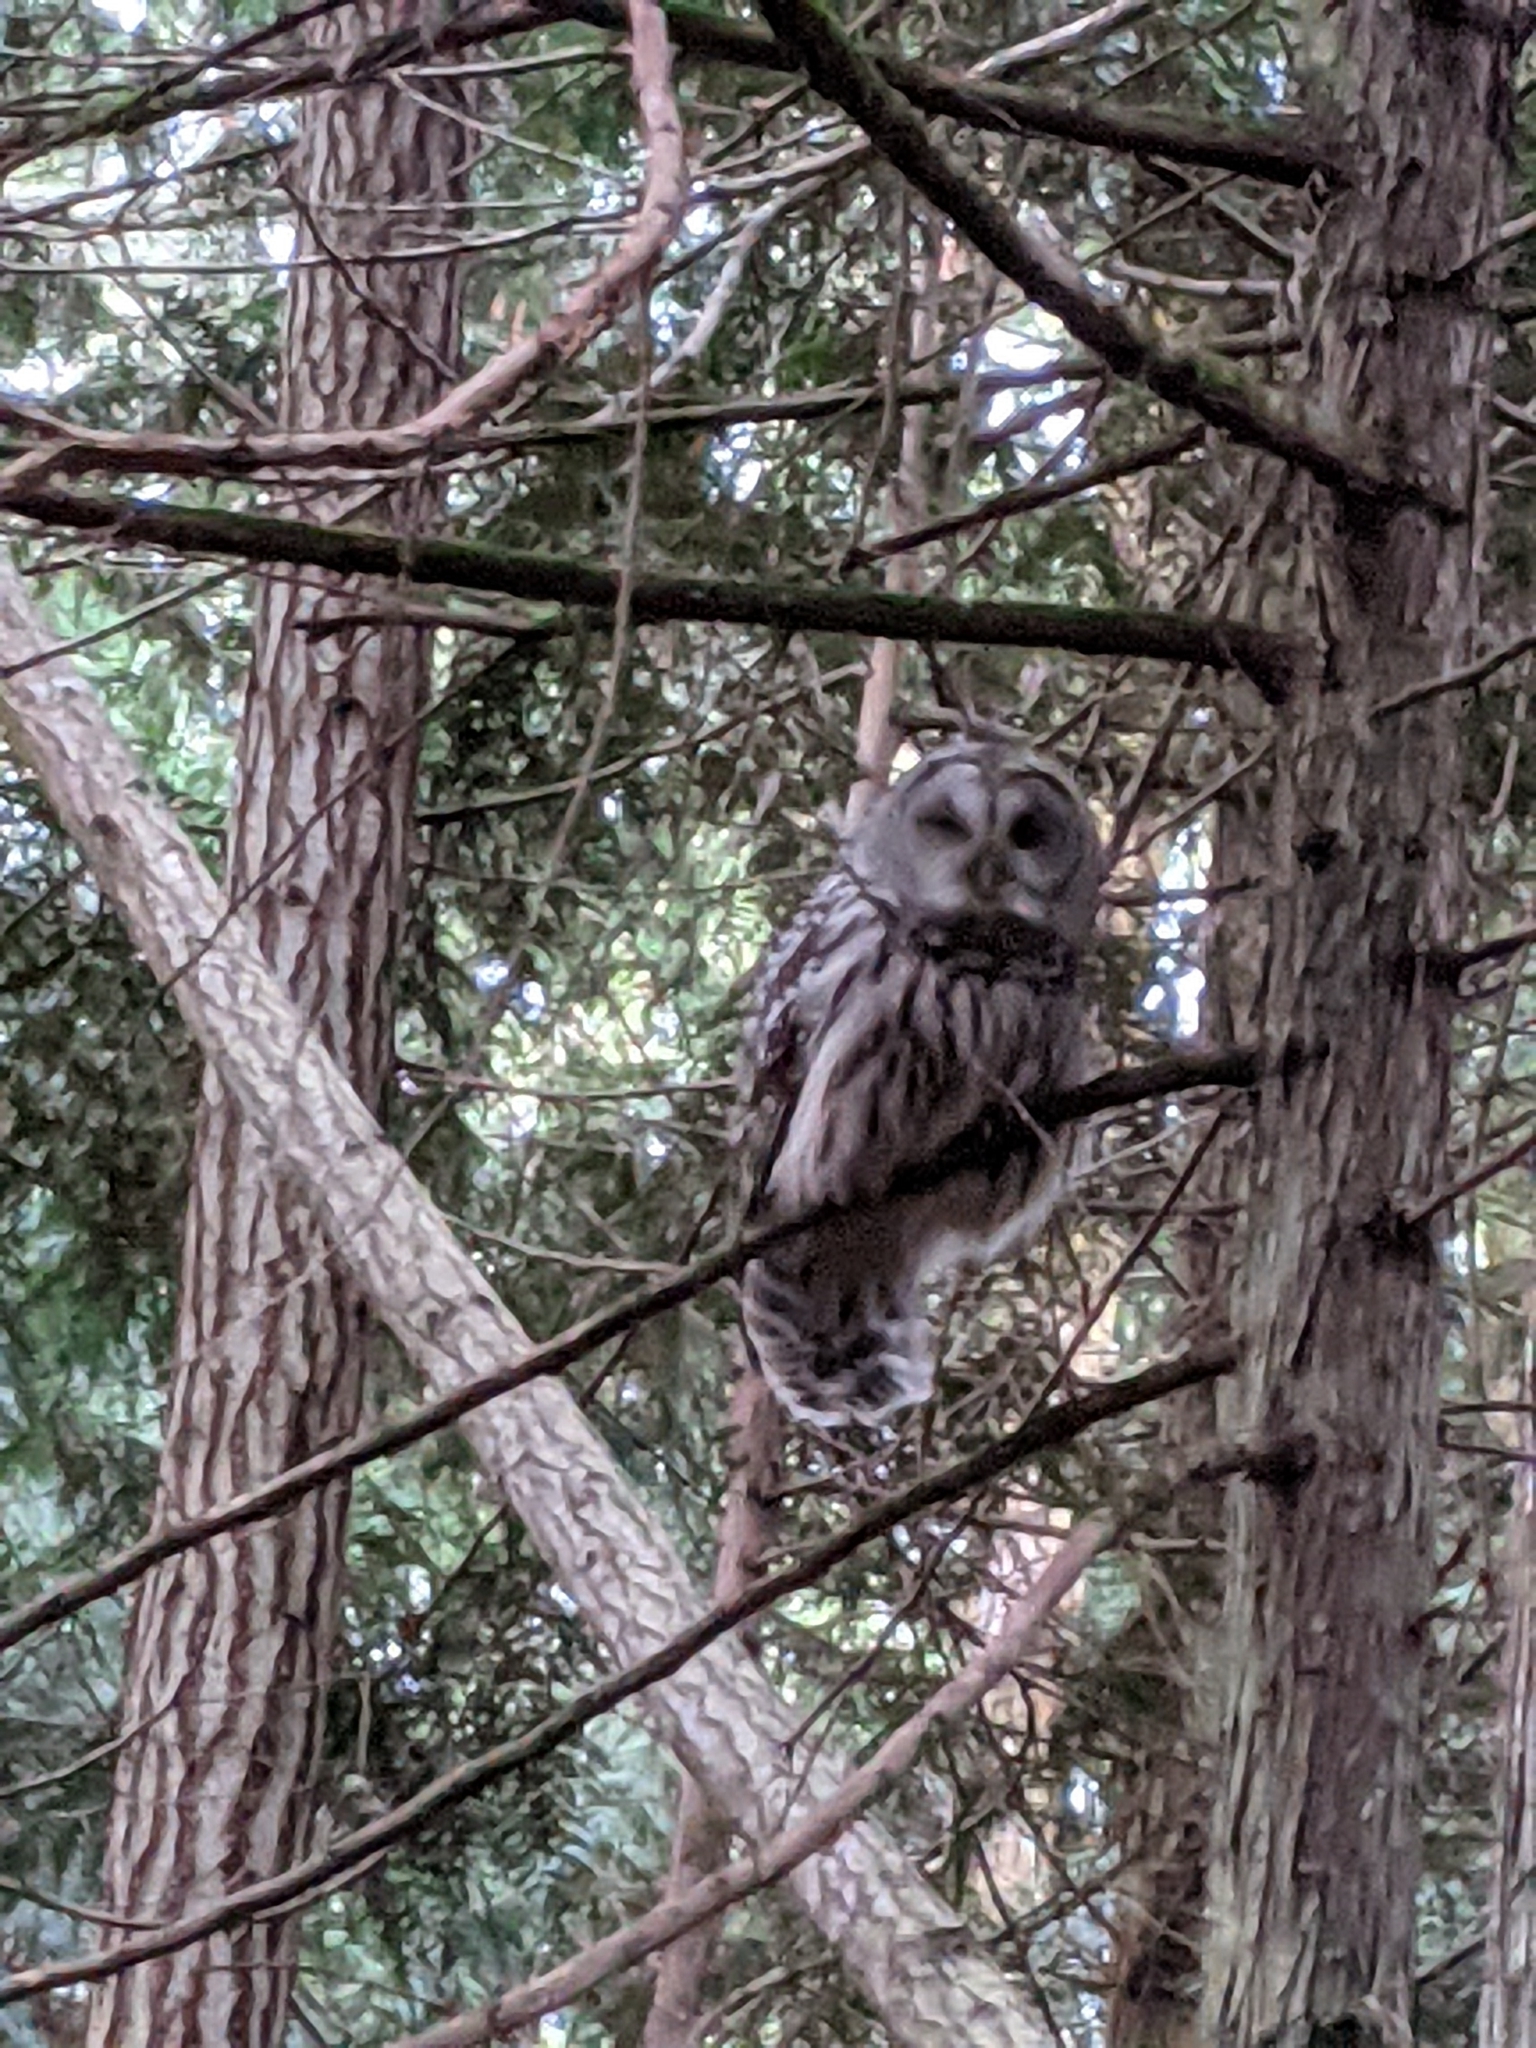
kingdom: Animalia
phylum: Chordata
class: Aves
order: Strigiformes
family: Strigidae
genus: Strix
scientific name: Strix varia
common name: Barred owl
